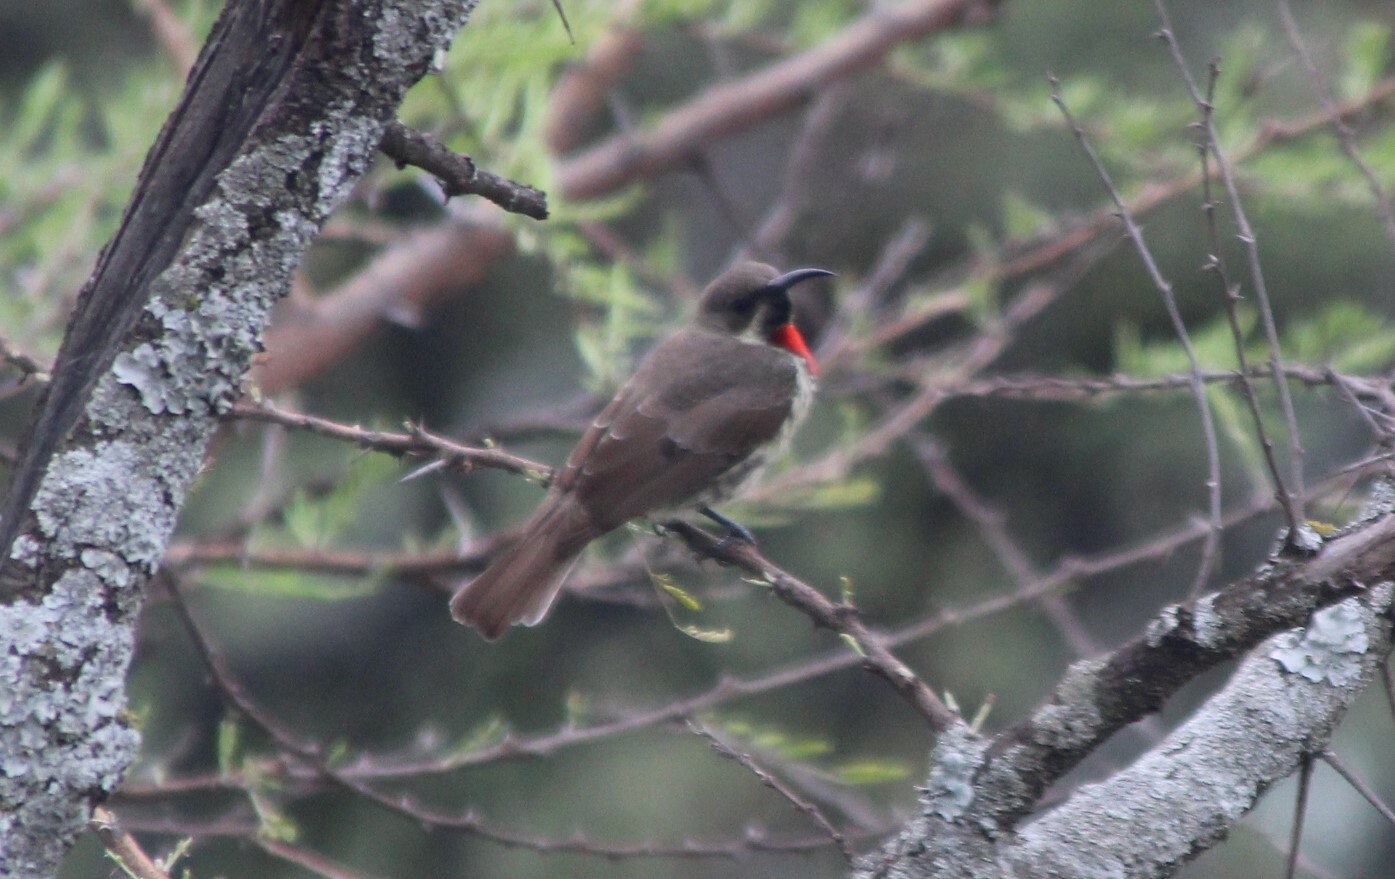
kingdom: Animalia
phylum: Chordata
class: Aves
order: Passeriformes
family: Nectariniidae
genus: Chalcomitra
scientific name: Chalcomitra senegalensis
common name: Scarlet-chested sunbird
